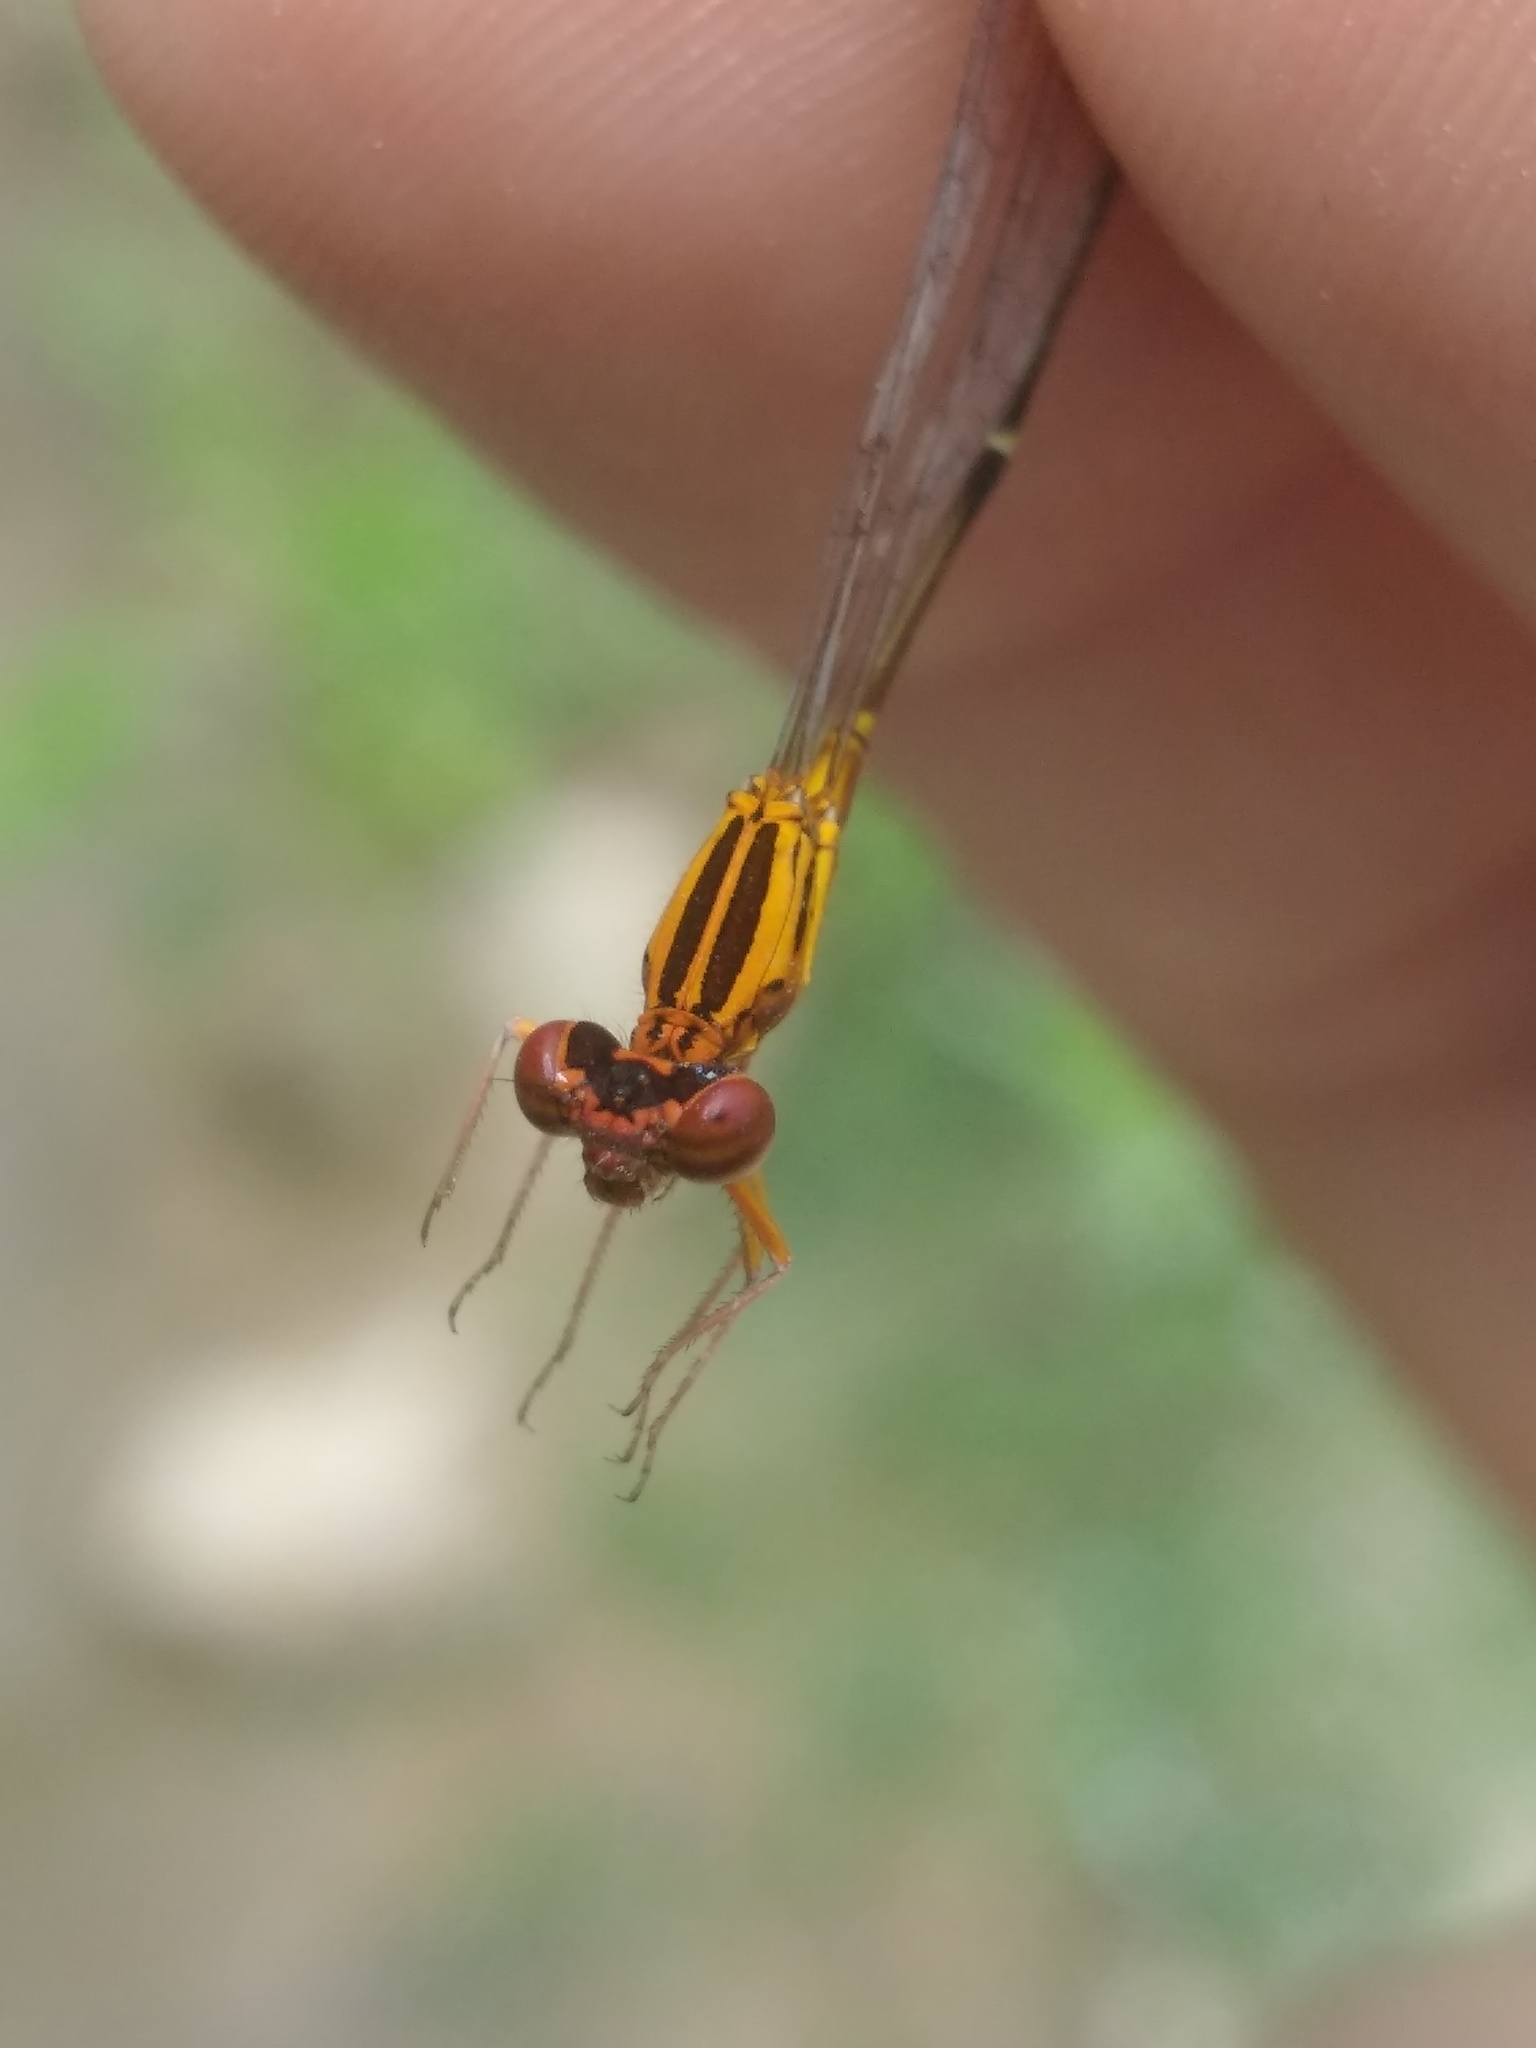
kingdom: Animalia
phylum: Arthropoda
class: Insecta
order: Odonata
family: Coenagrionidae
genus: Protoneura
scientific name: Protoneura cara
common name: Orange-striped threadtail
